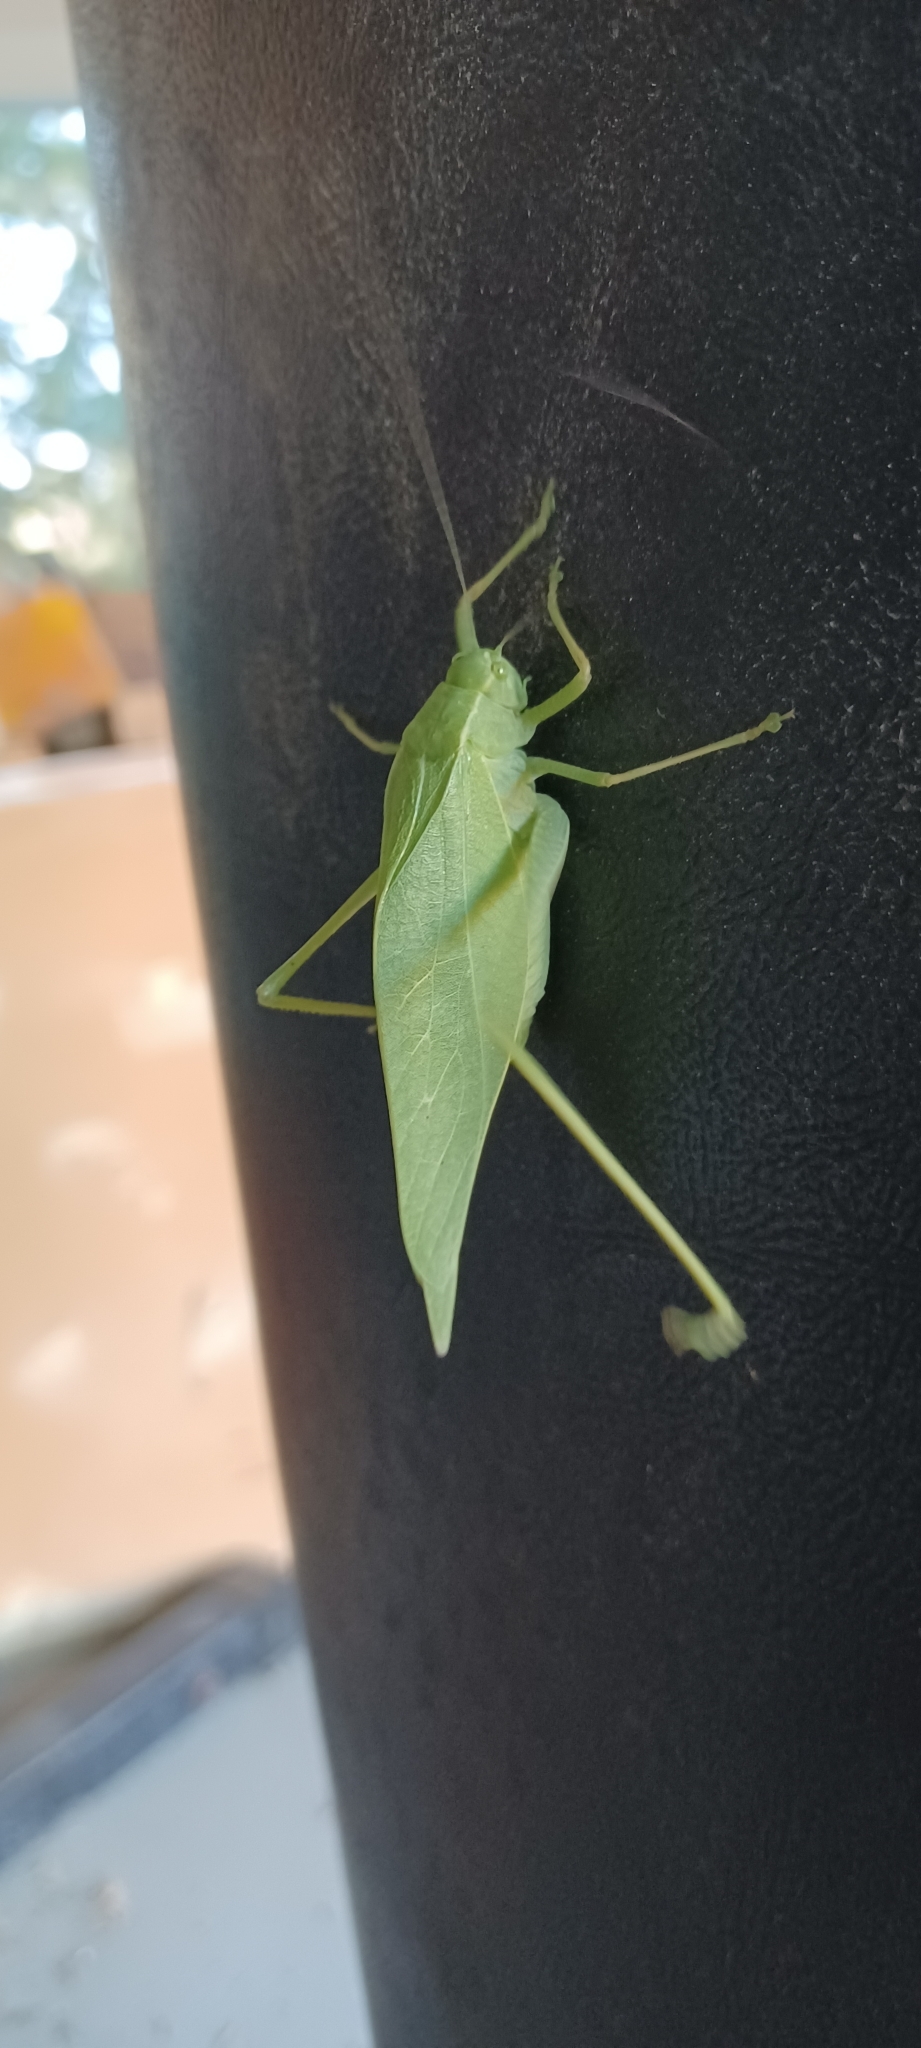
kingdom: Animalia
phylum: Arthropoda
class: Insecta
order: Orthoptera
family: Tettigoniidae
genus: Microcentrum
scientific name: Microcentrum rhombifolium
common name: Broad-winged katydid
